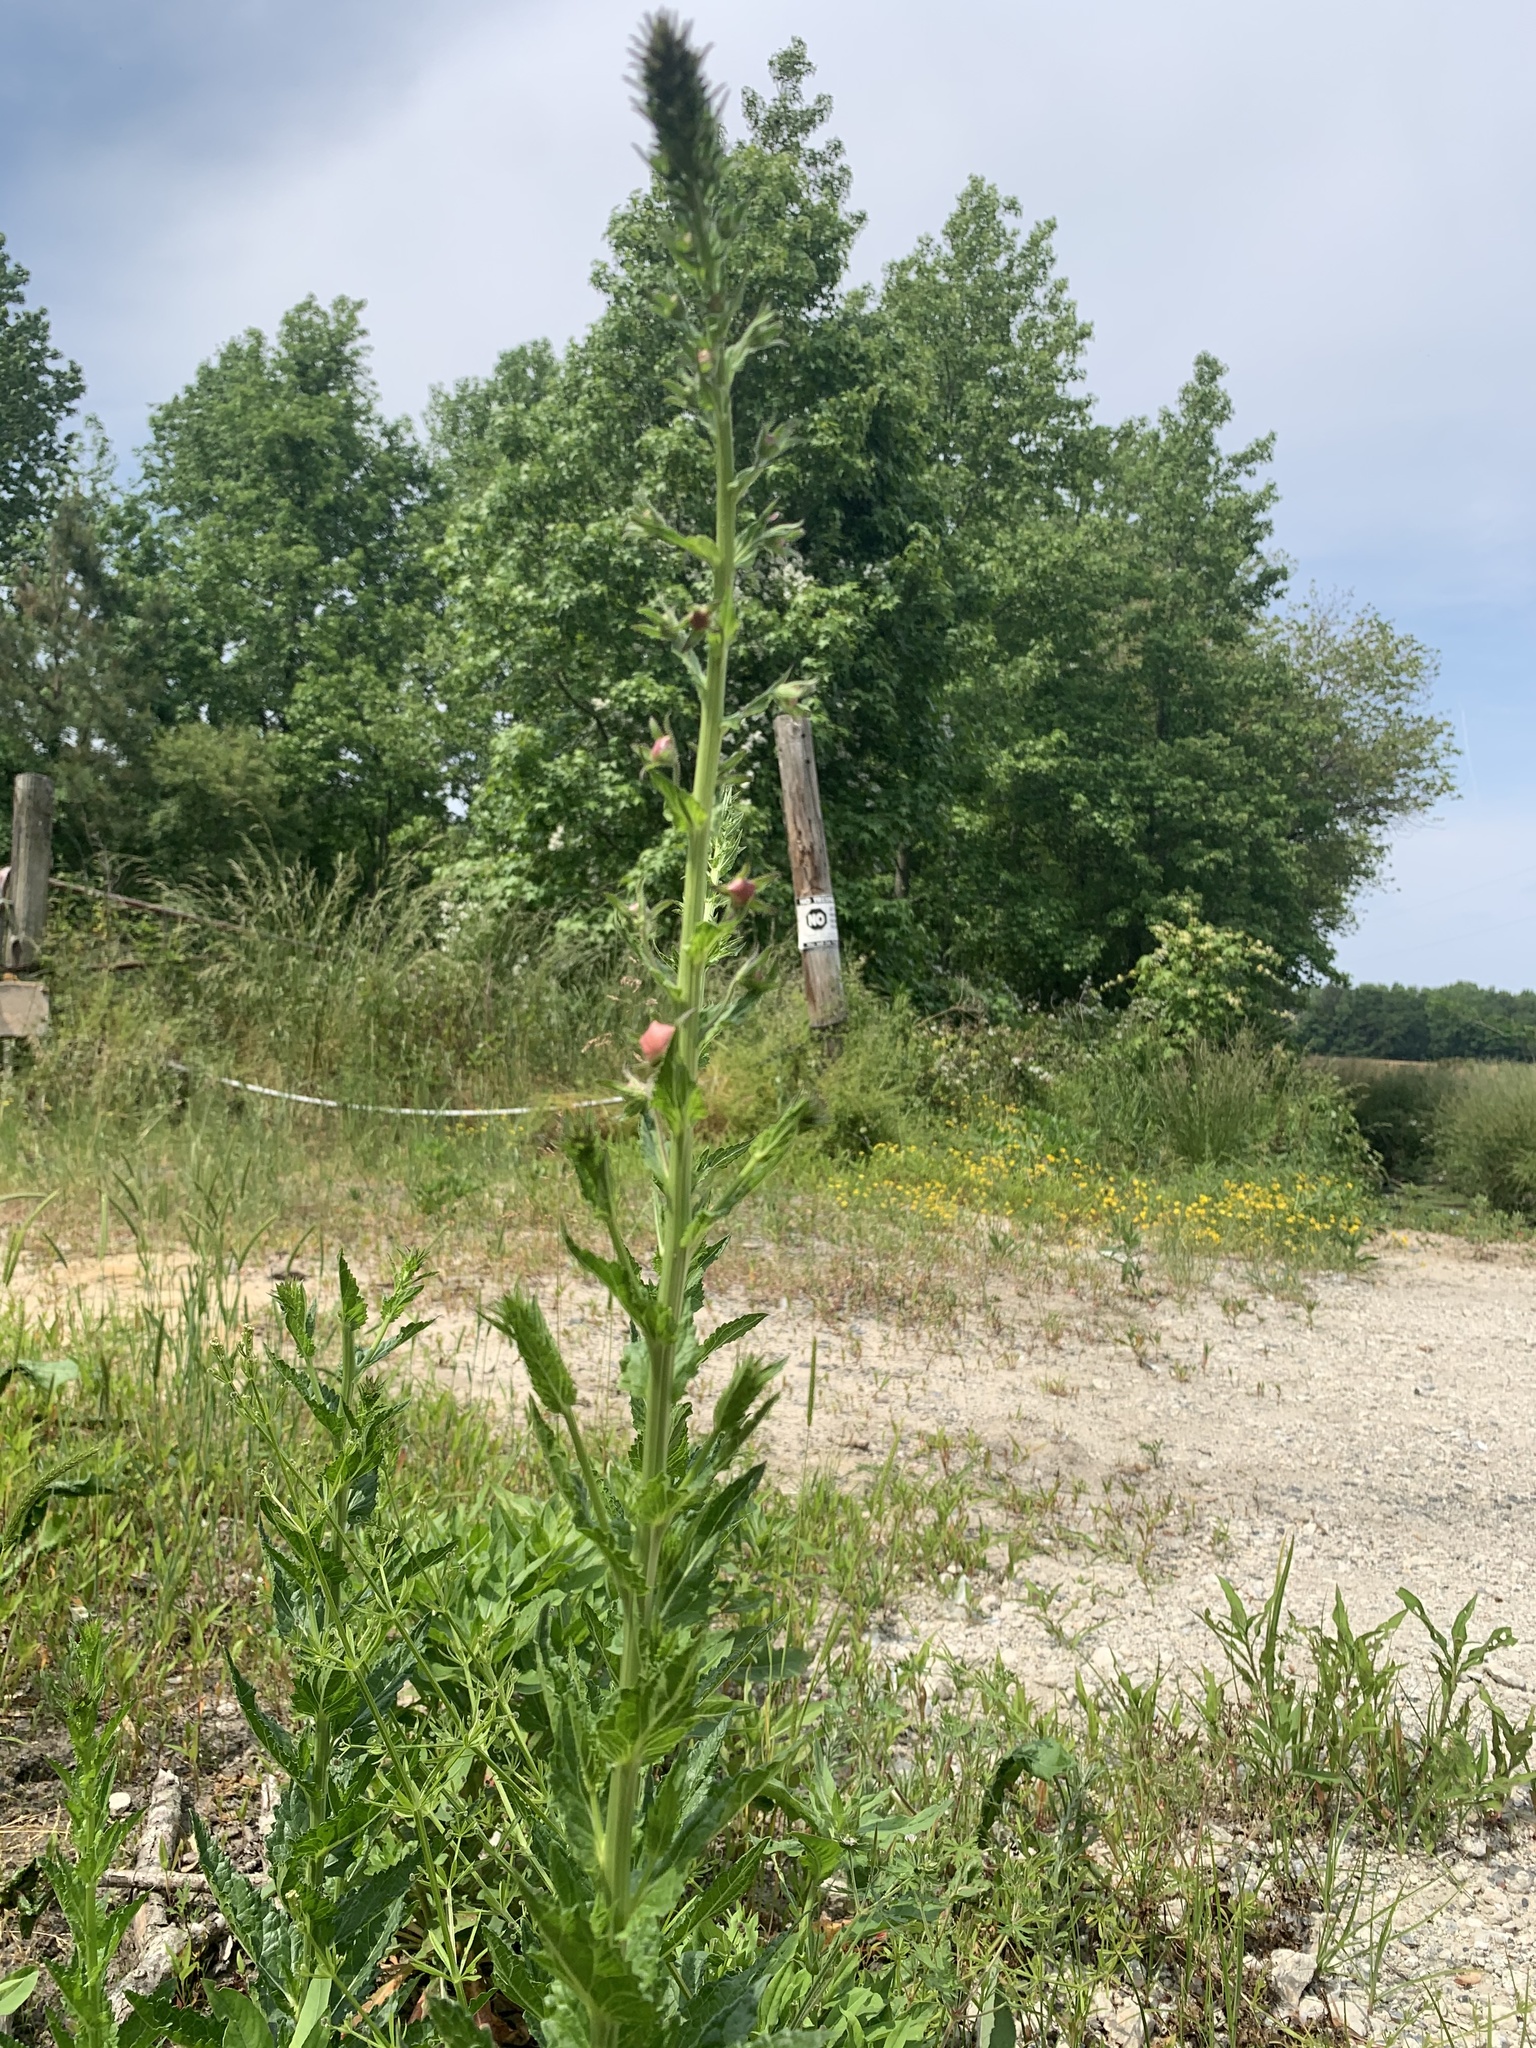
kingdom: Plantae
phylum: Tracheophyta
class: Magnoliopsida
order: Lamiales
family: Scrophulariaceae
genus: Verbascum
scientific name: Verbascum blattaria
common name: Moth mullein
